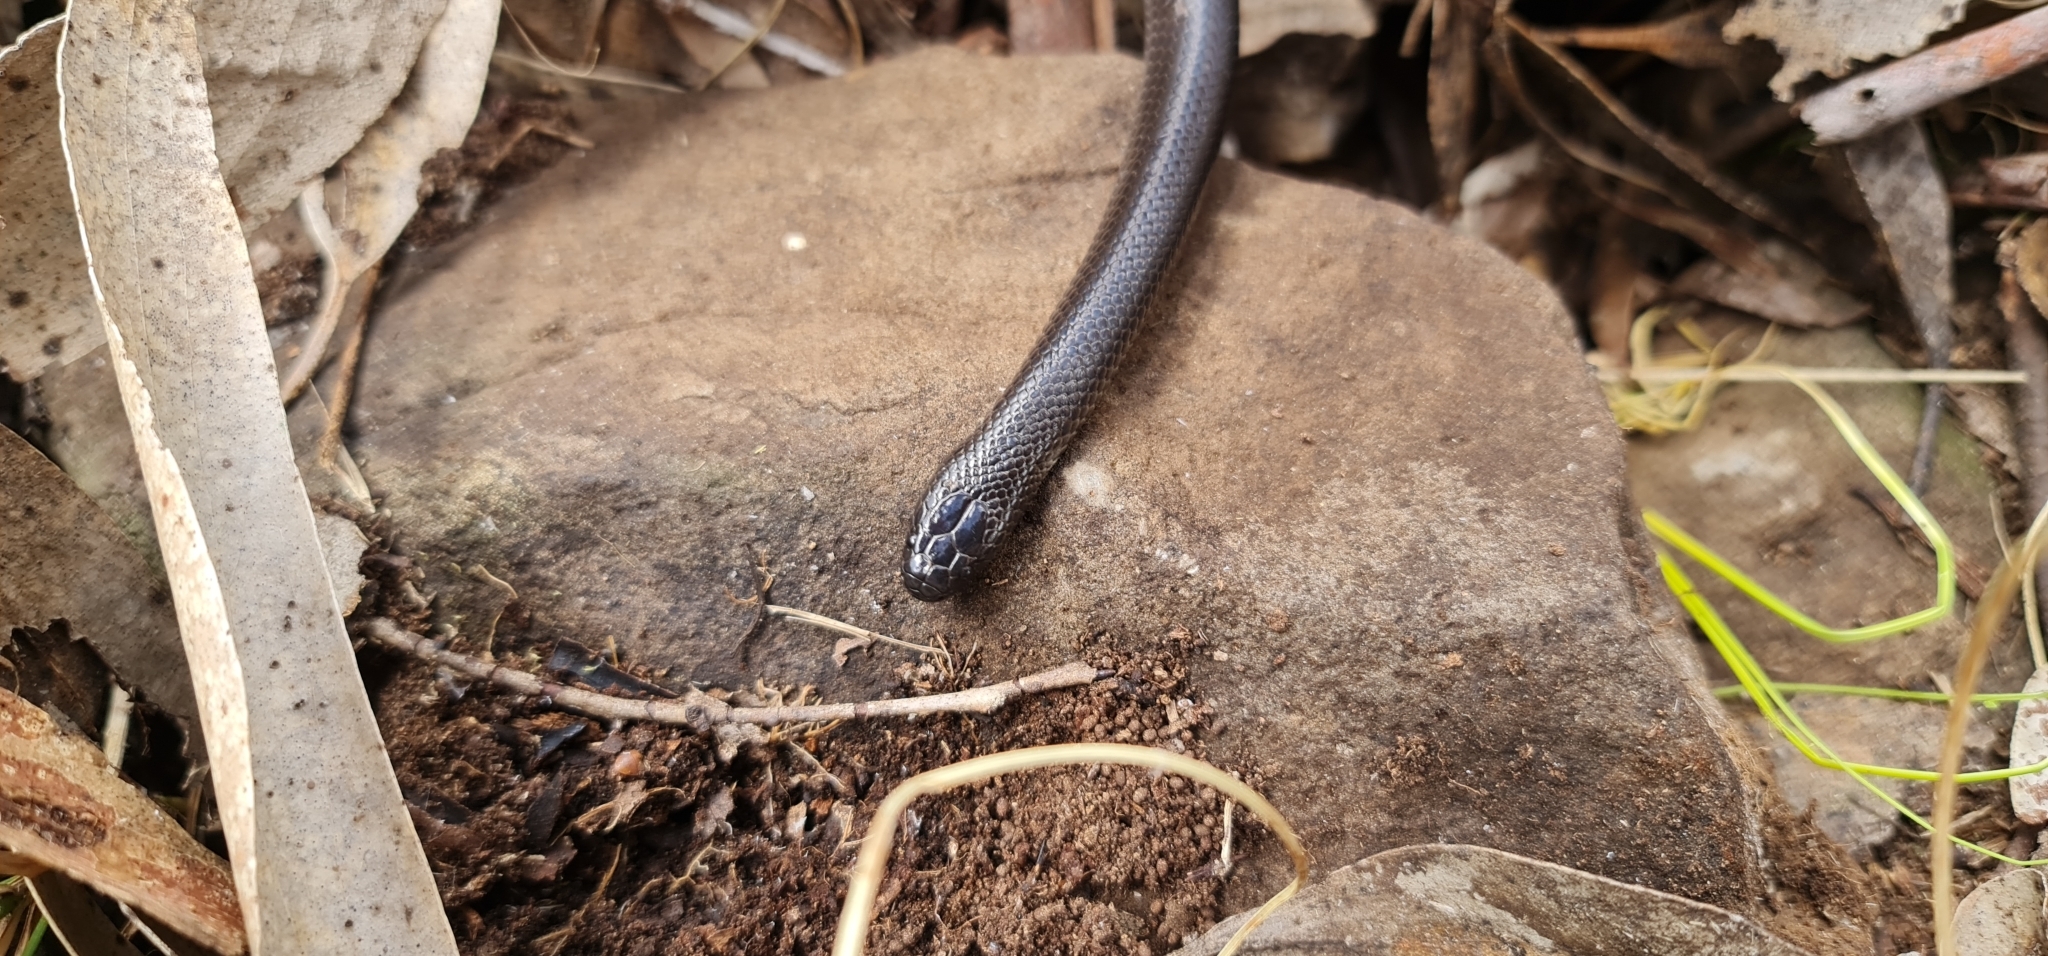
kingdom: Animalia
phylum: Chordata
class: Squamata
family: Elapidae
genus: Cryptophis
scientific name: Cryptophis nigrescens
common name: Eastern small-eyed snake
